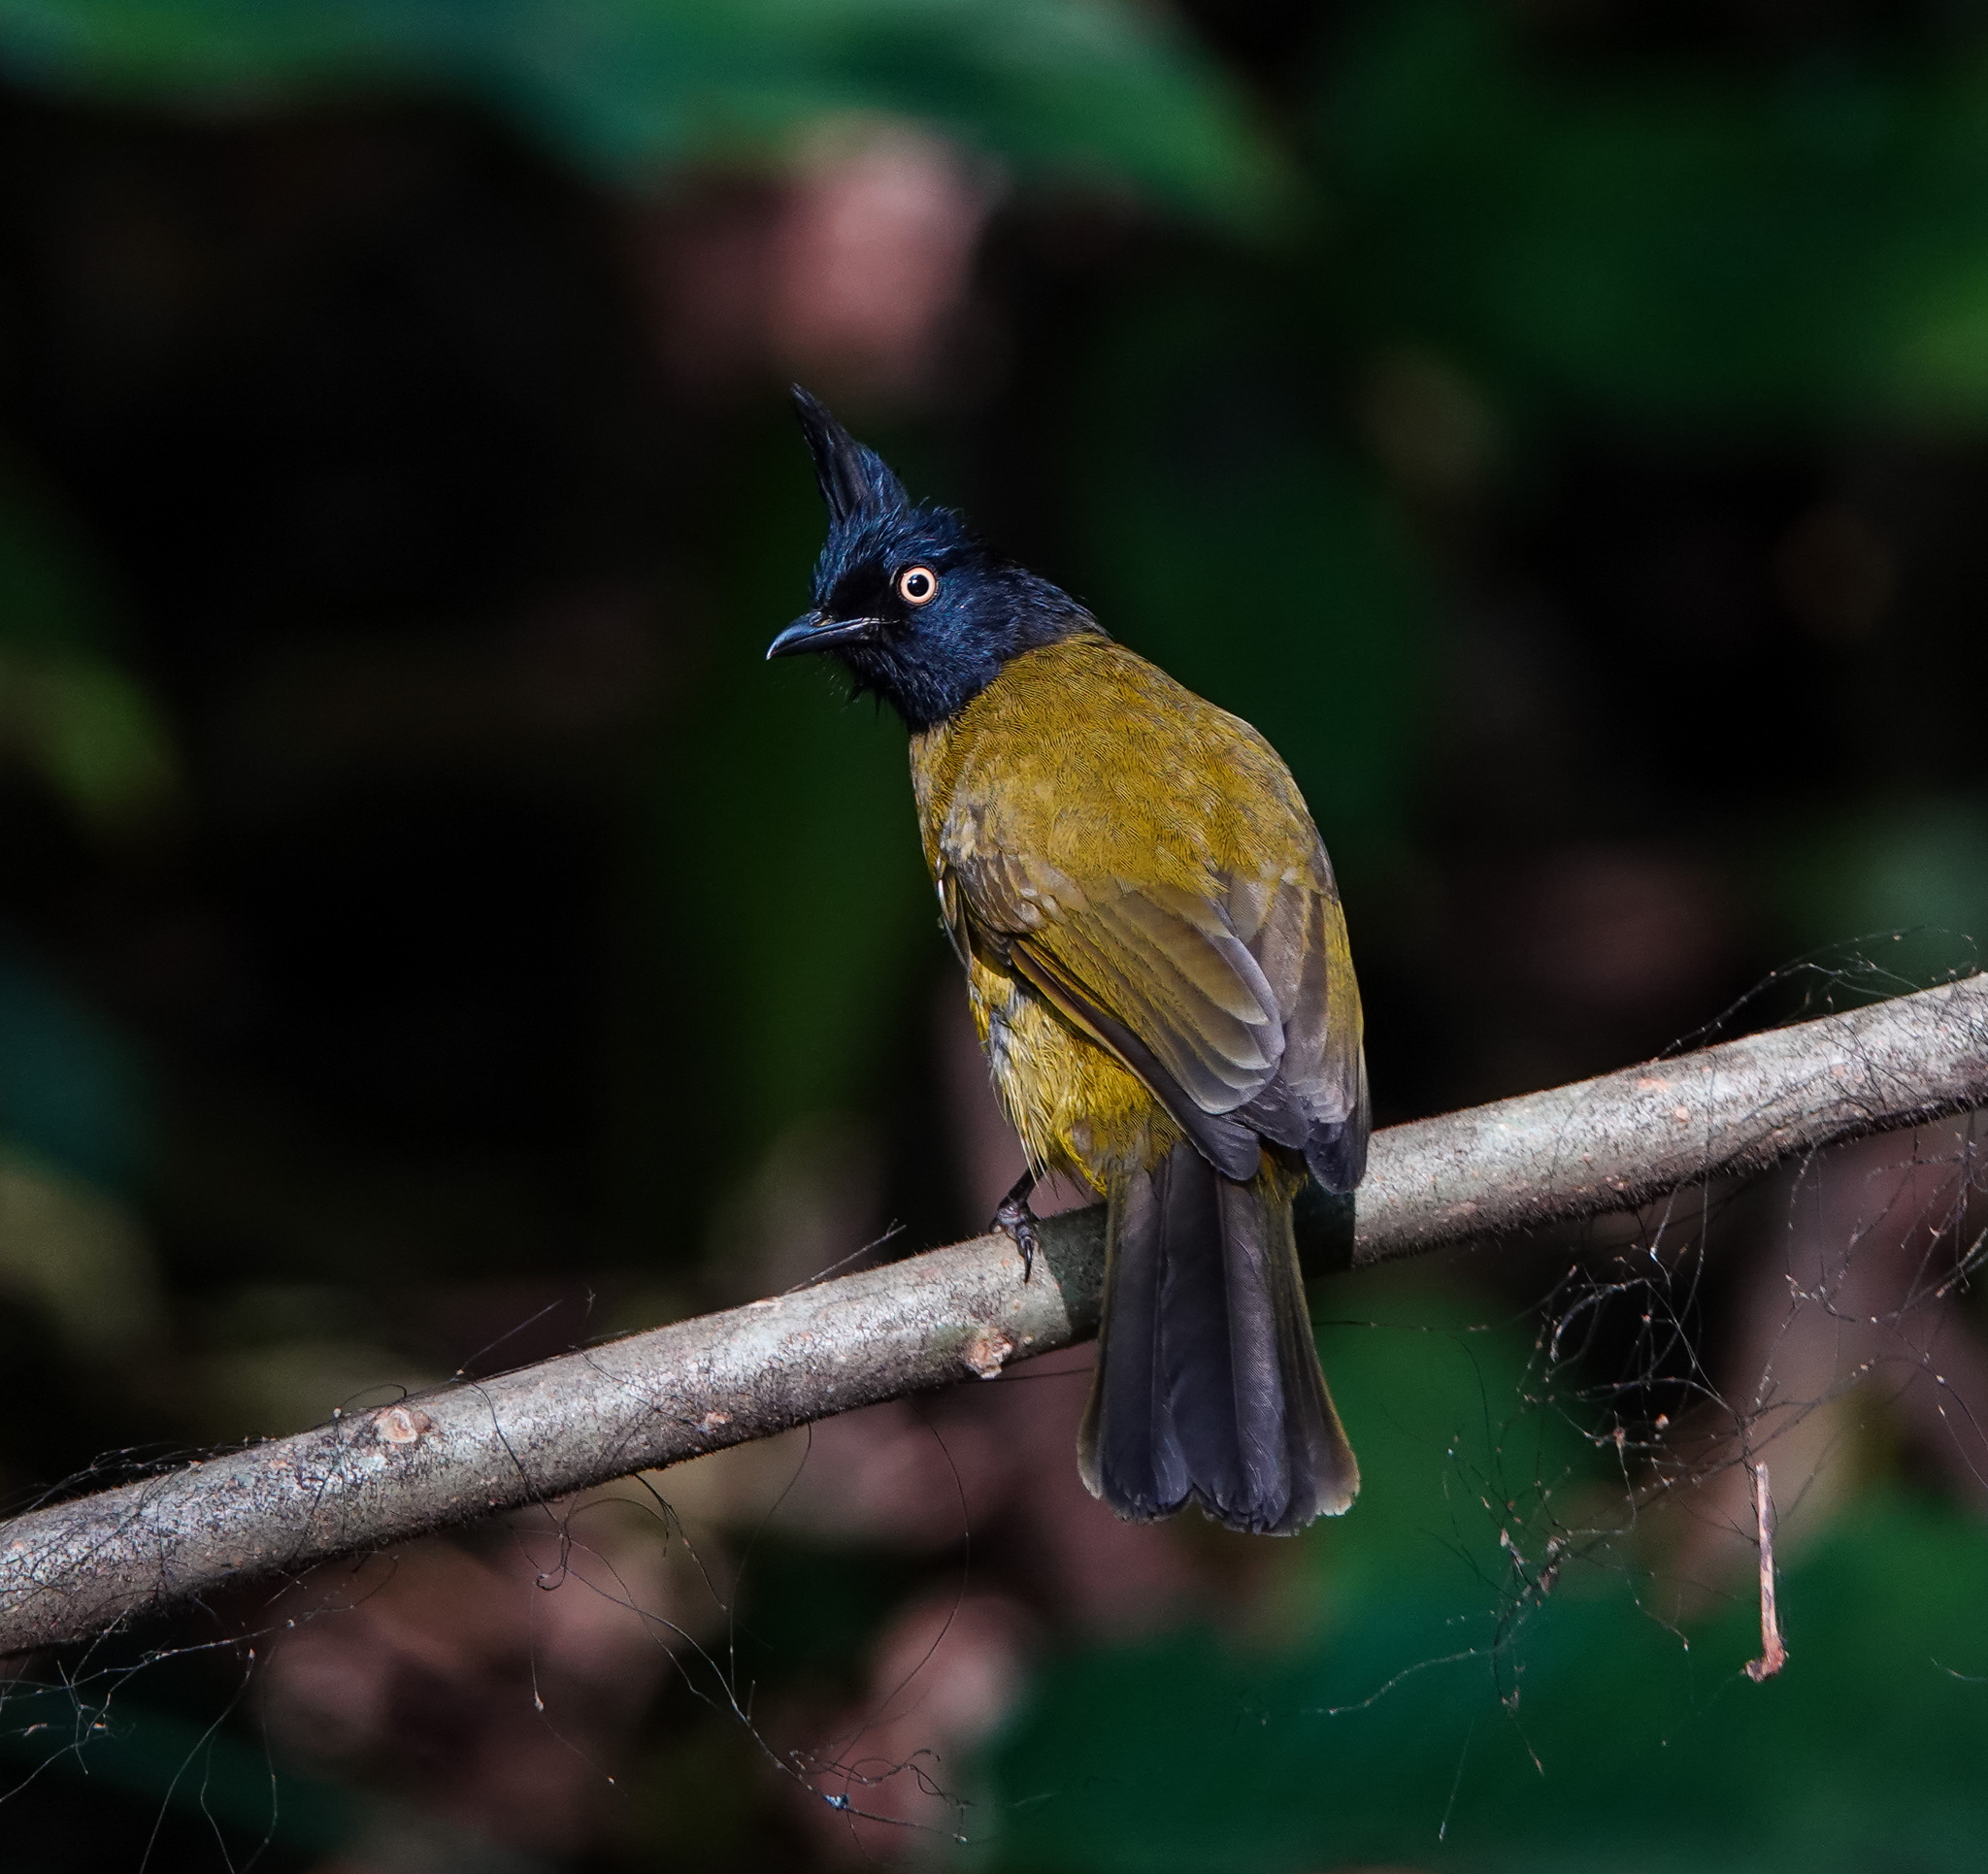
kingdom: Animalia
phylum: Chordata
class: Aves
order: Passeriformes
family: Pycnonotidae
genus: Pycnonotus
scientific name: Pycnonotus flaviventris
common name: Black-crested bulbul
